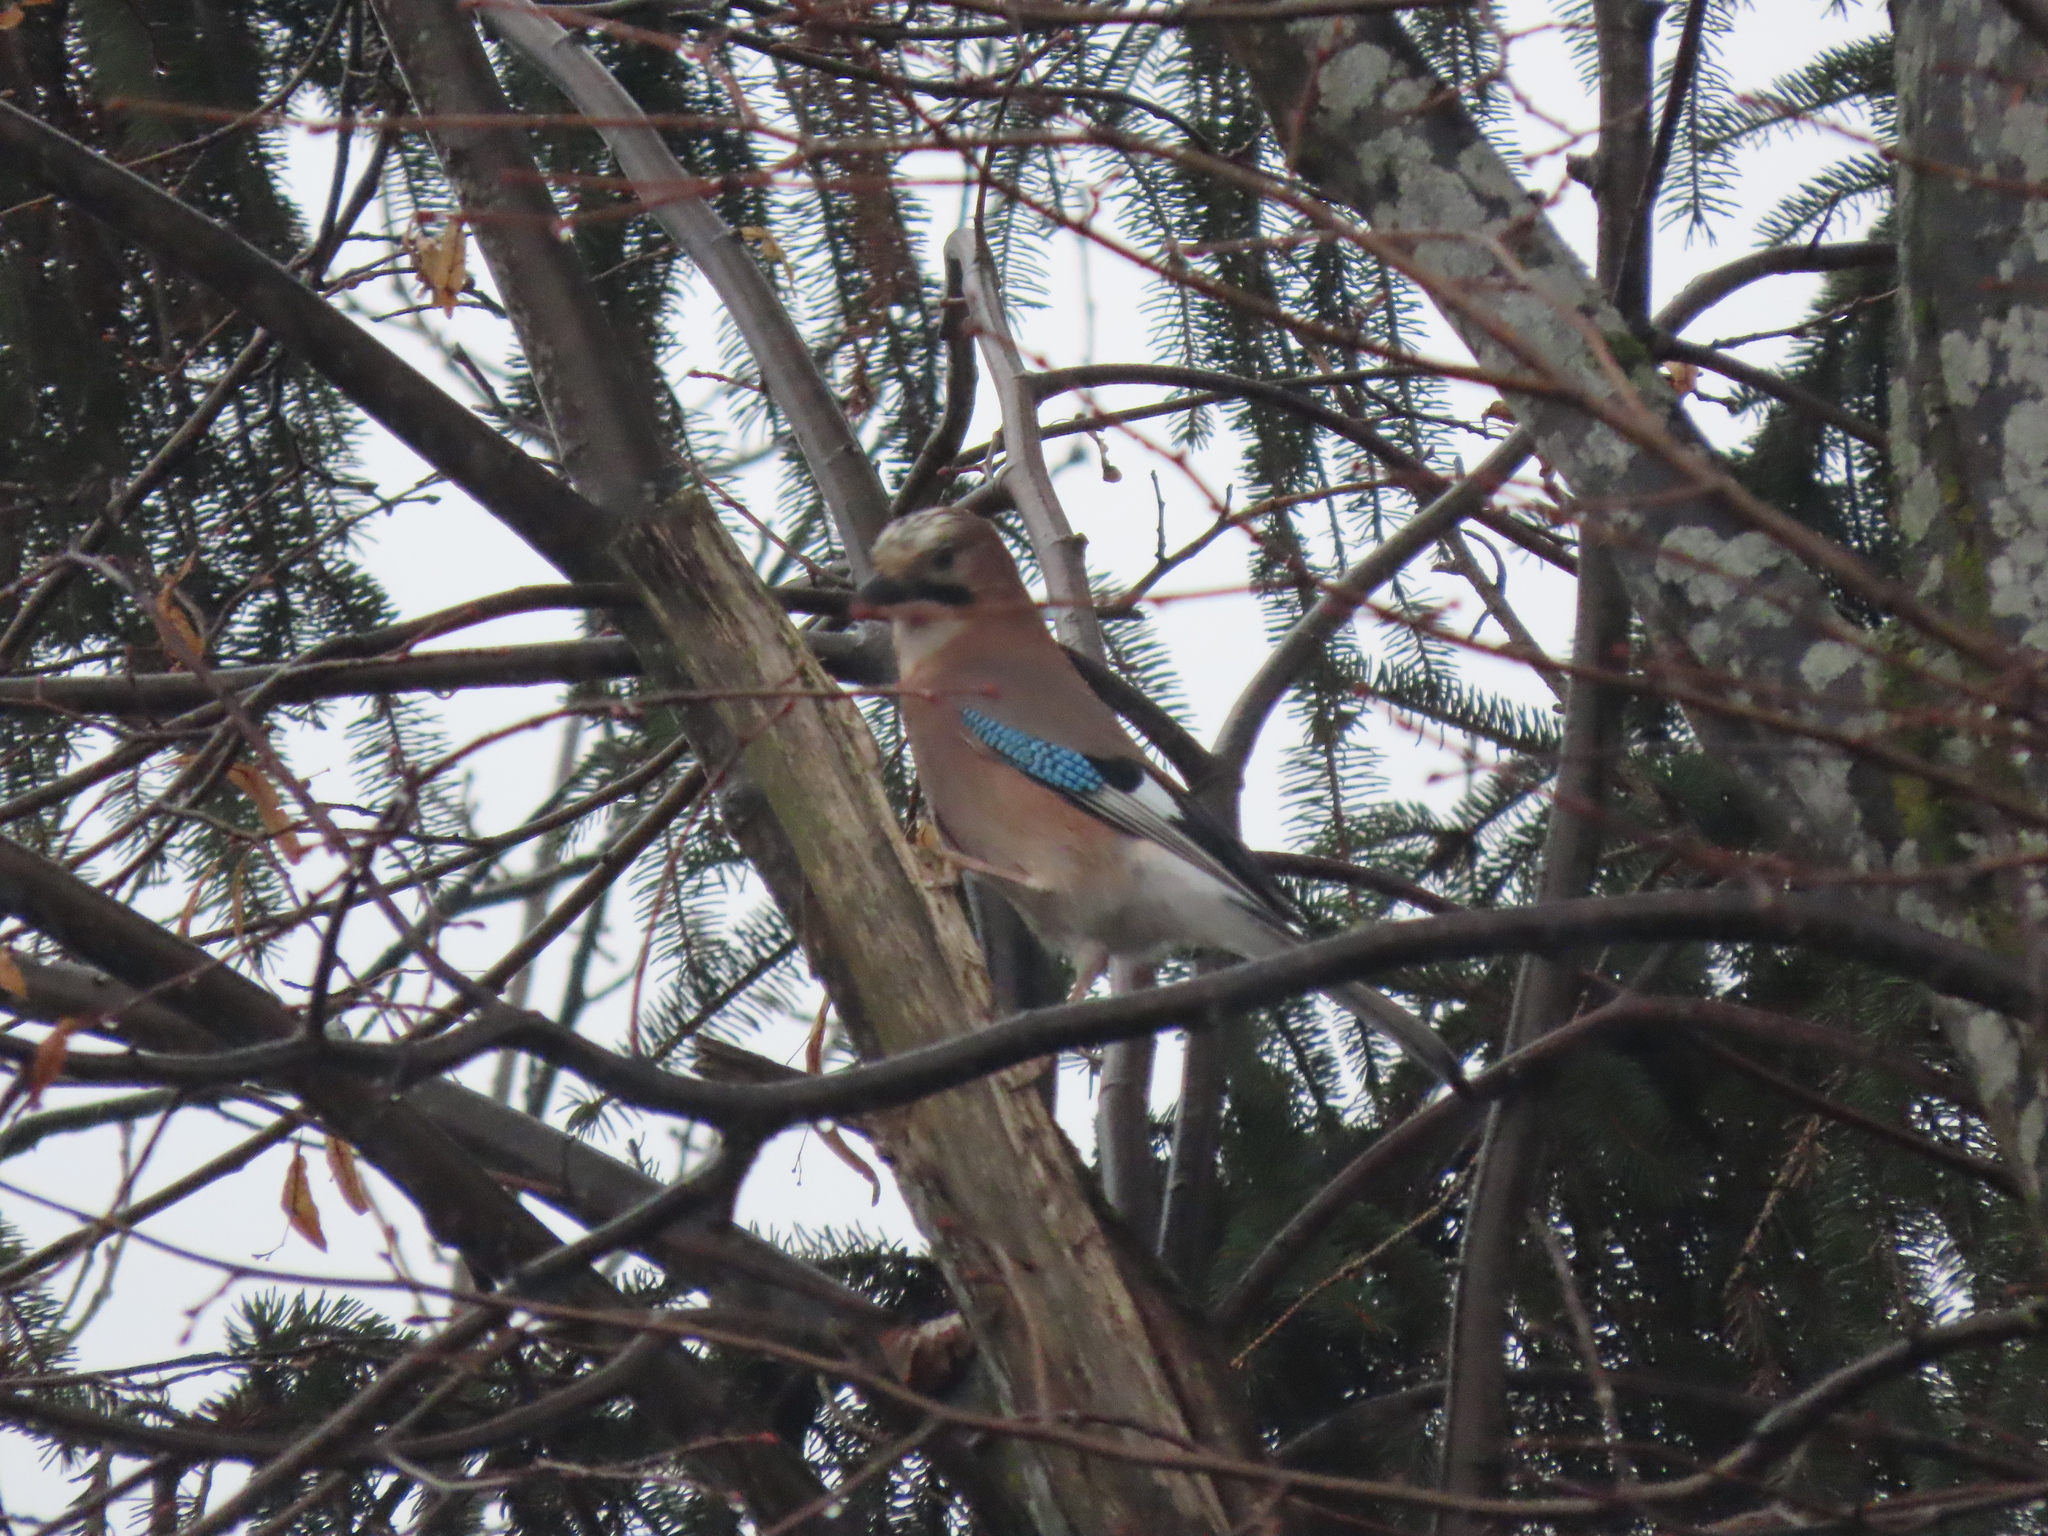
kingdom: Animalia
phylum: Chordata
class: Aves
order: Passeriformes
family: Corvidae
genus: Garrulus
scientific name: Garrulus glandarius
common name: Eurasian jay
